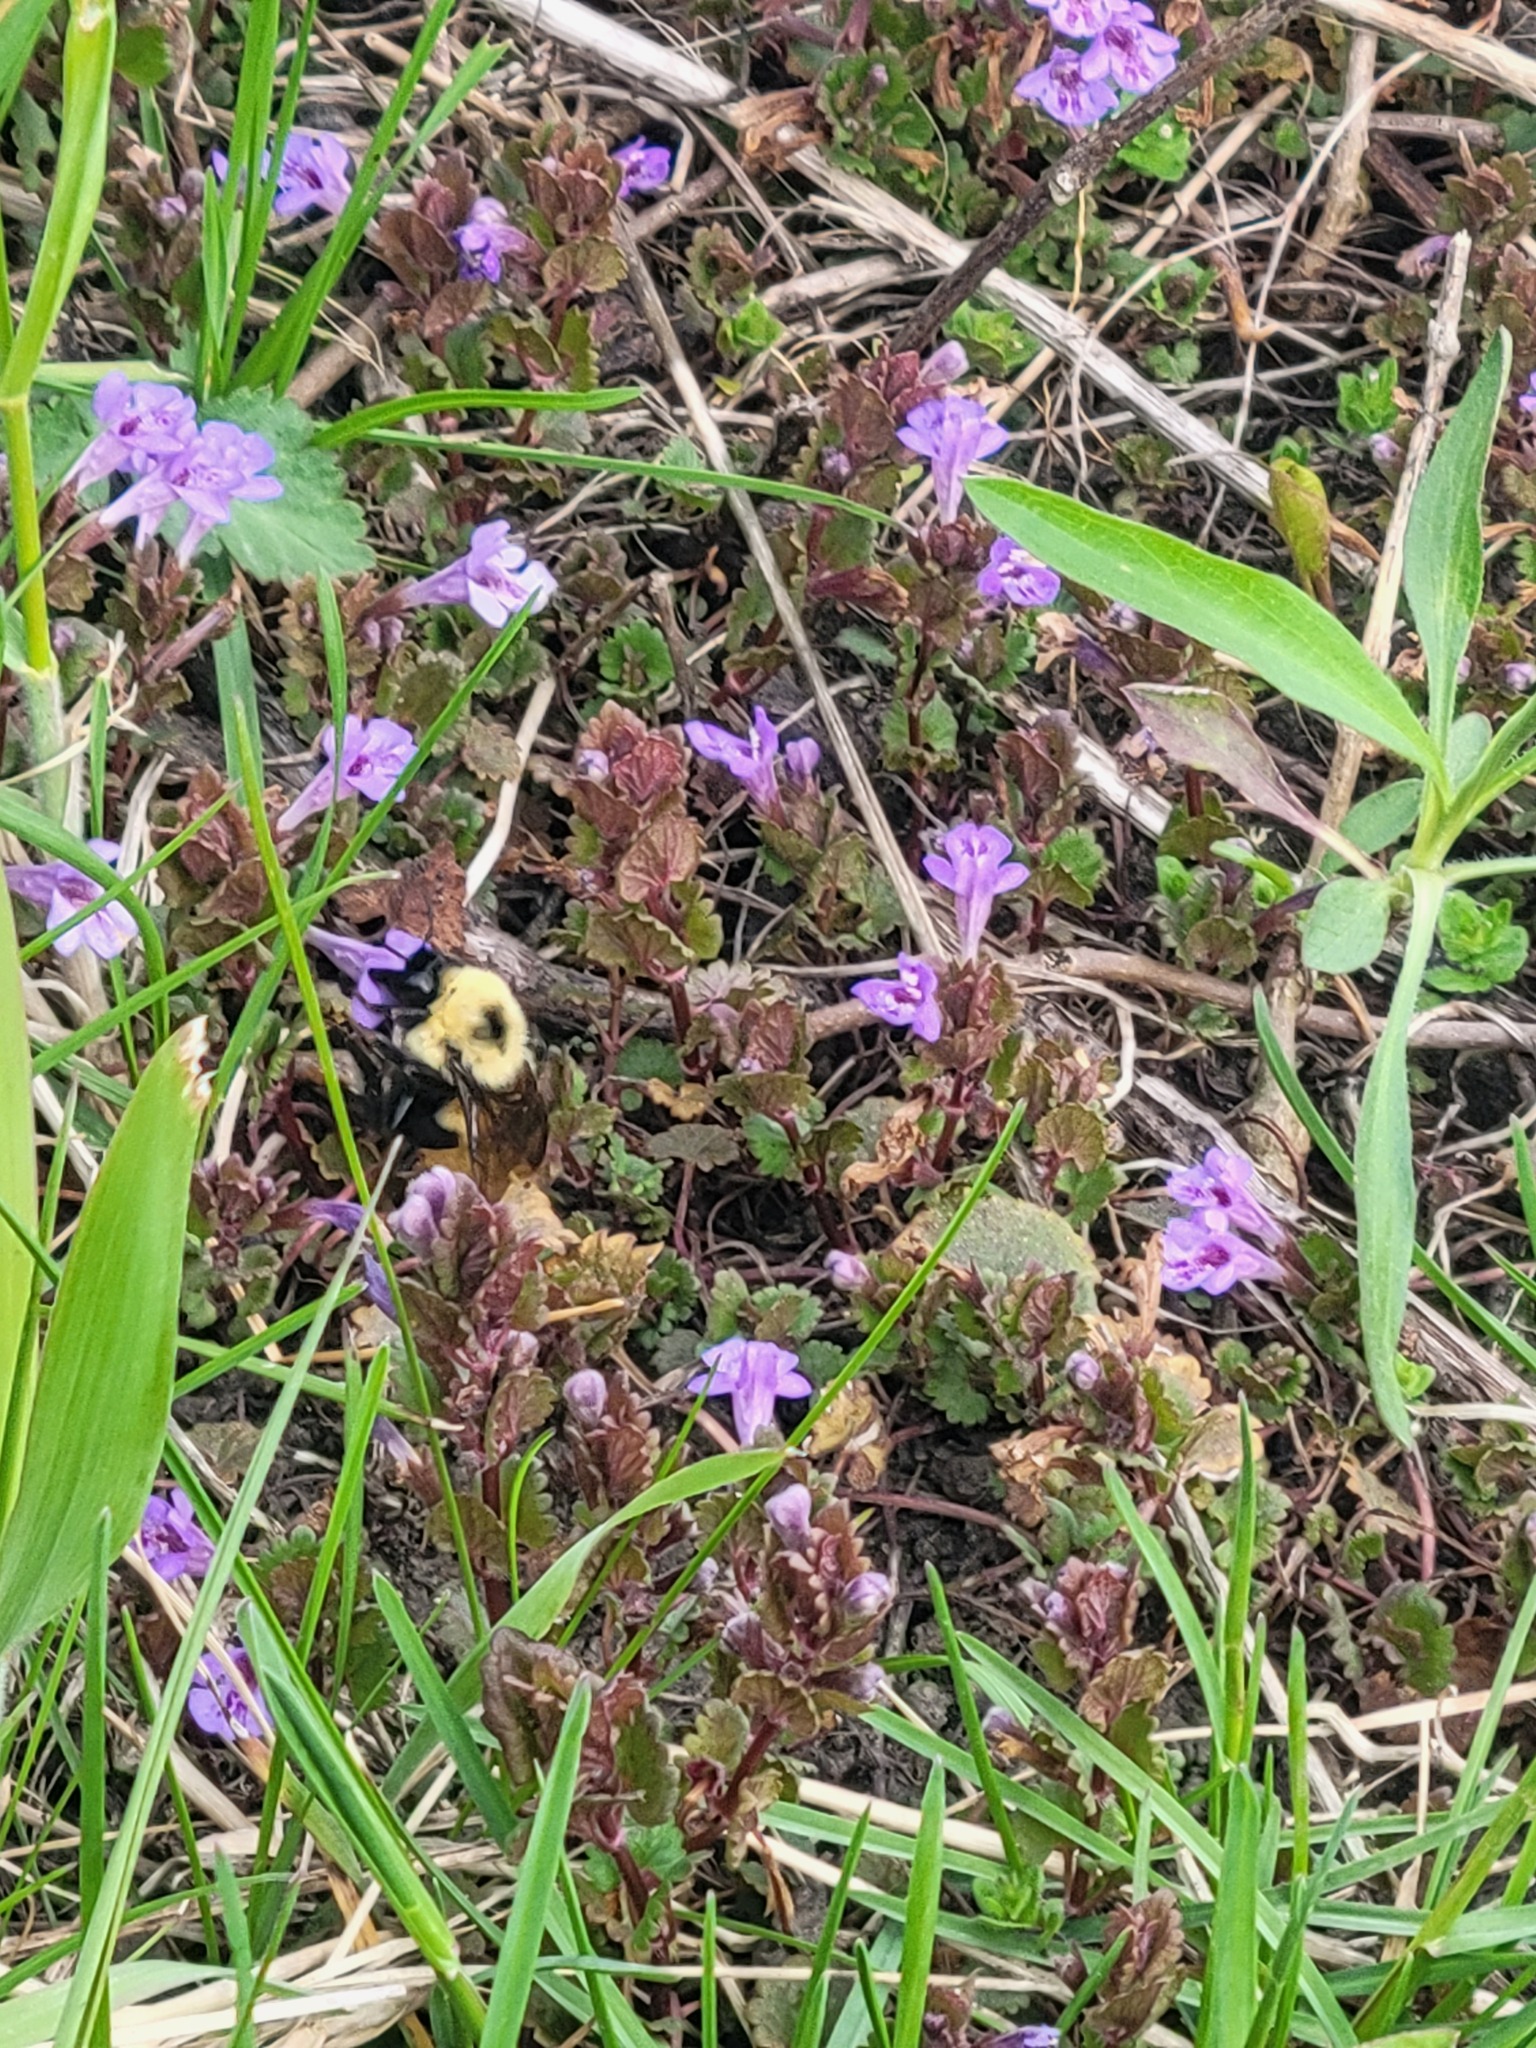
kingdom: Animalia
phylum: Arthropoda
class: Insecta
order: Hymenoptera
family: Apidae
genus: Bombus
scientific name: Bombus bimaculatus
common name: Two-spotted bumble bee
